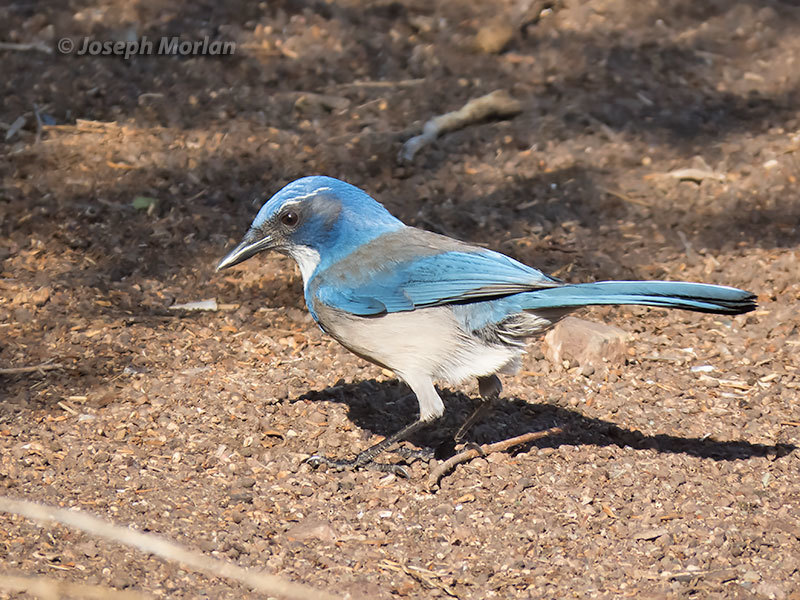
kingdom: Animalia
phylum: Chordata
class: Aves
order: Passeriformes
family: Corvidae
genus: Aphelocoma
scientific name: Aphelocoma californica
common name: California scrub-jay
